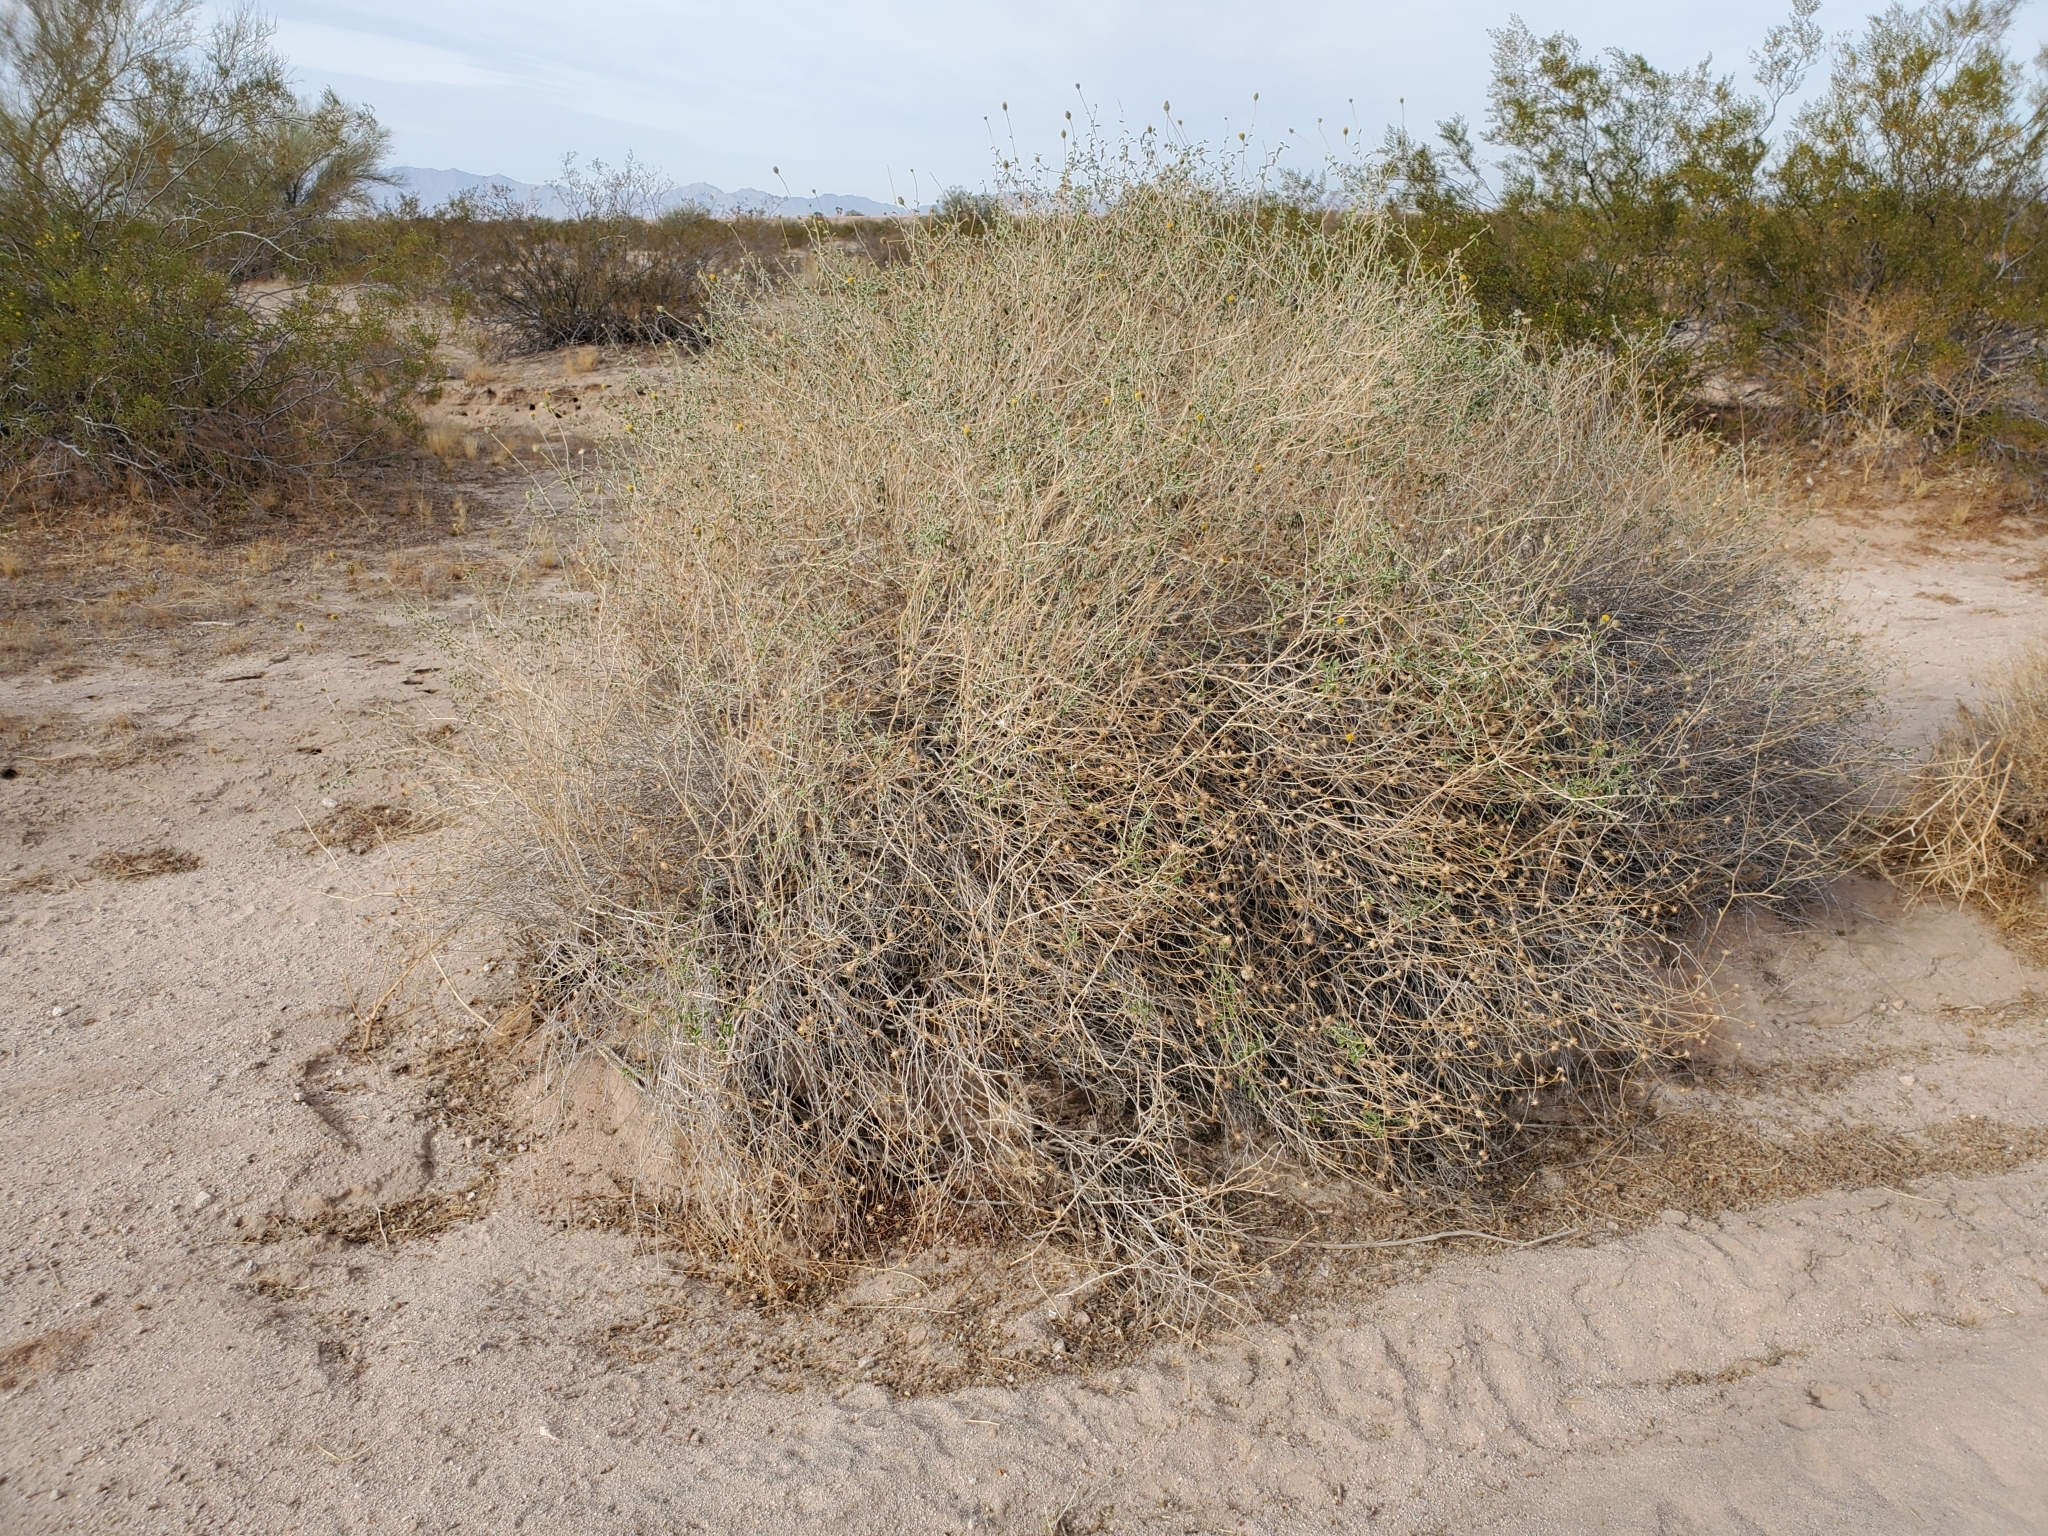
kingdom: Plantae
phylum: Tracheophyta
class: Magnoliopsida
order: Asterales
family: Asteraceae
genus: Encelia
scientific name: Encelia frutescens
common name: Bush encelia
